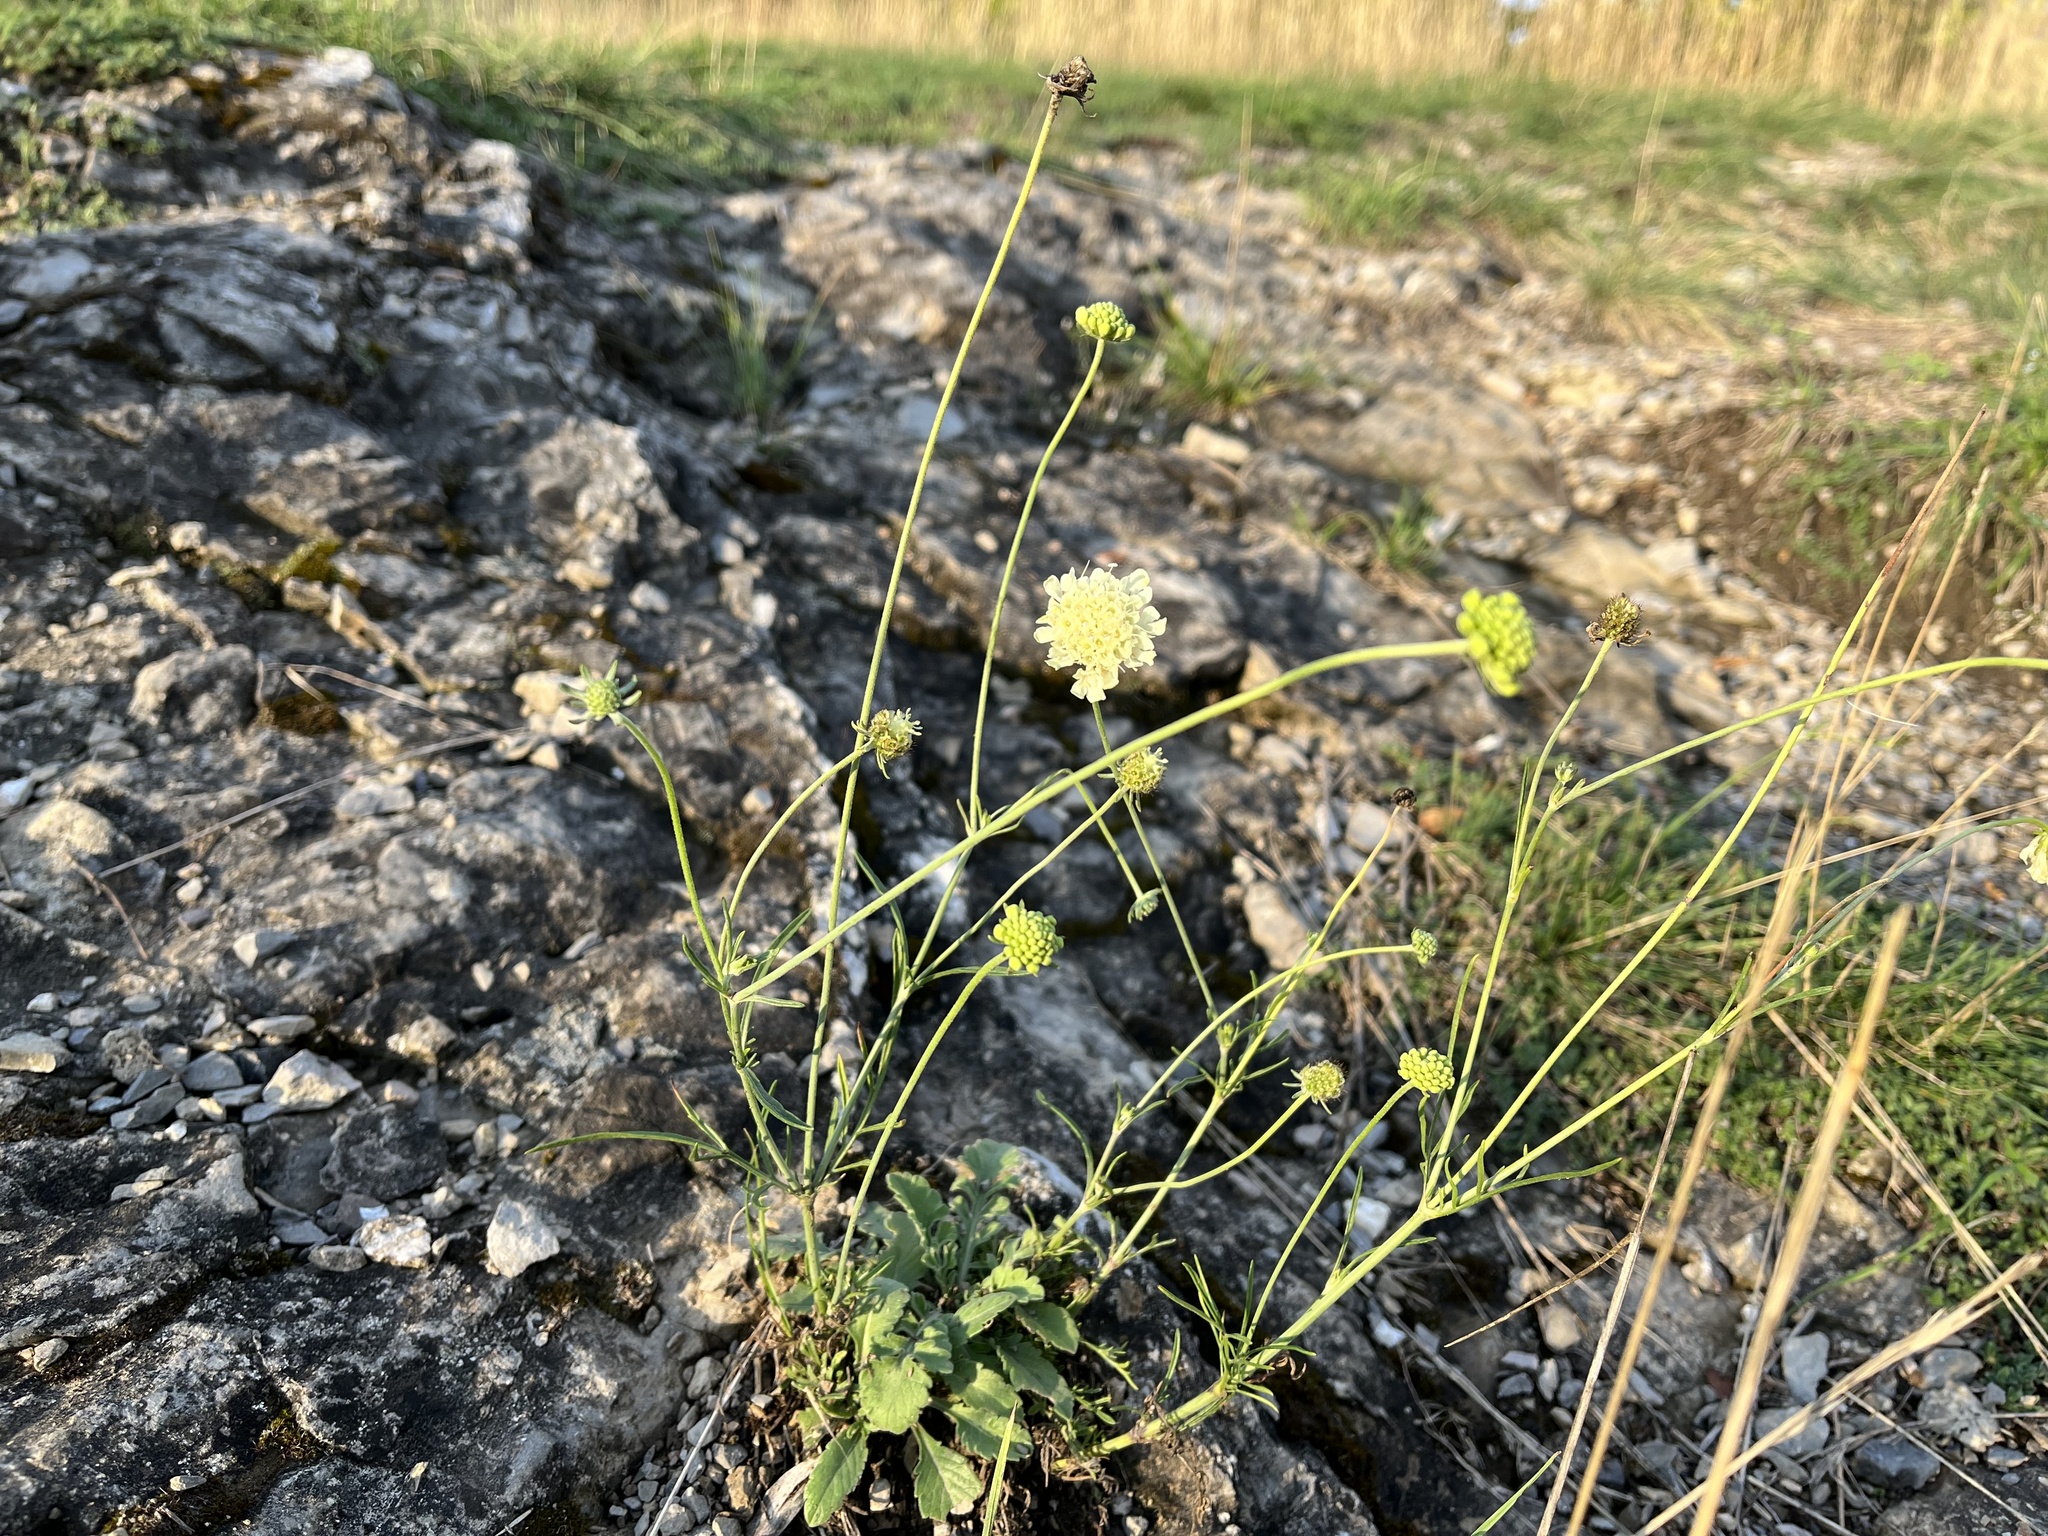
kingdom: Plantae
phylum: Tracheophyta
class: Magnoliopsida
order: Dipsacales
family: Caprifoliaceae
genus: Scabiosa
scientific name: Scabiosa ochroleuca
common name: Cream pincushions
